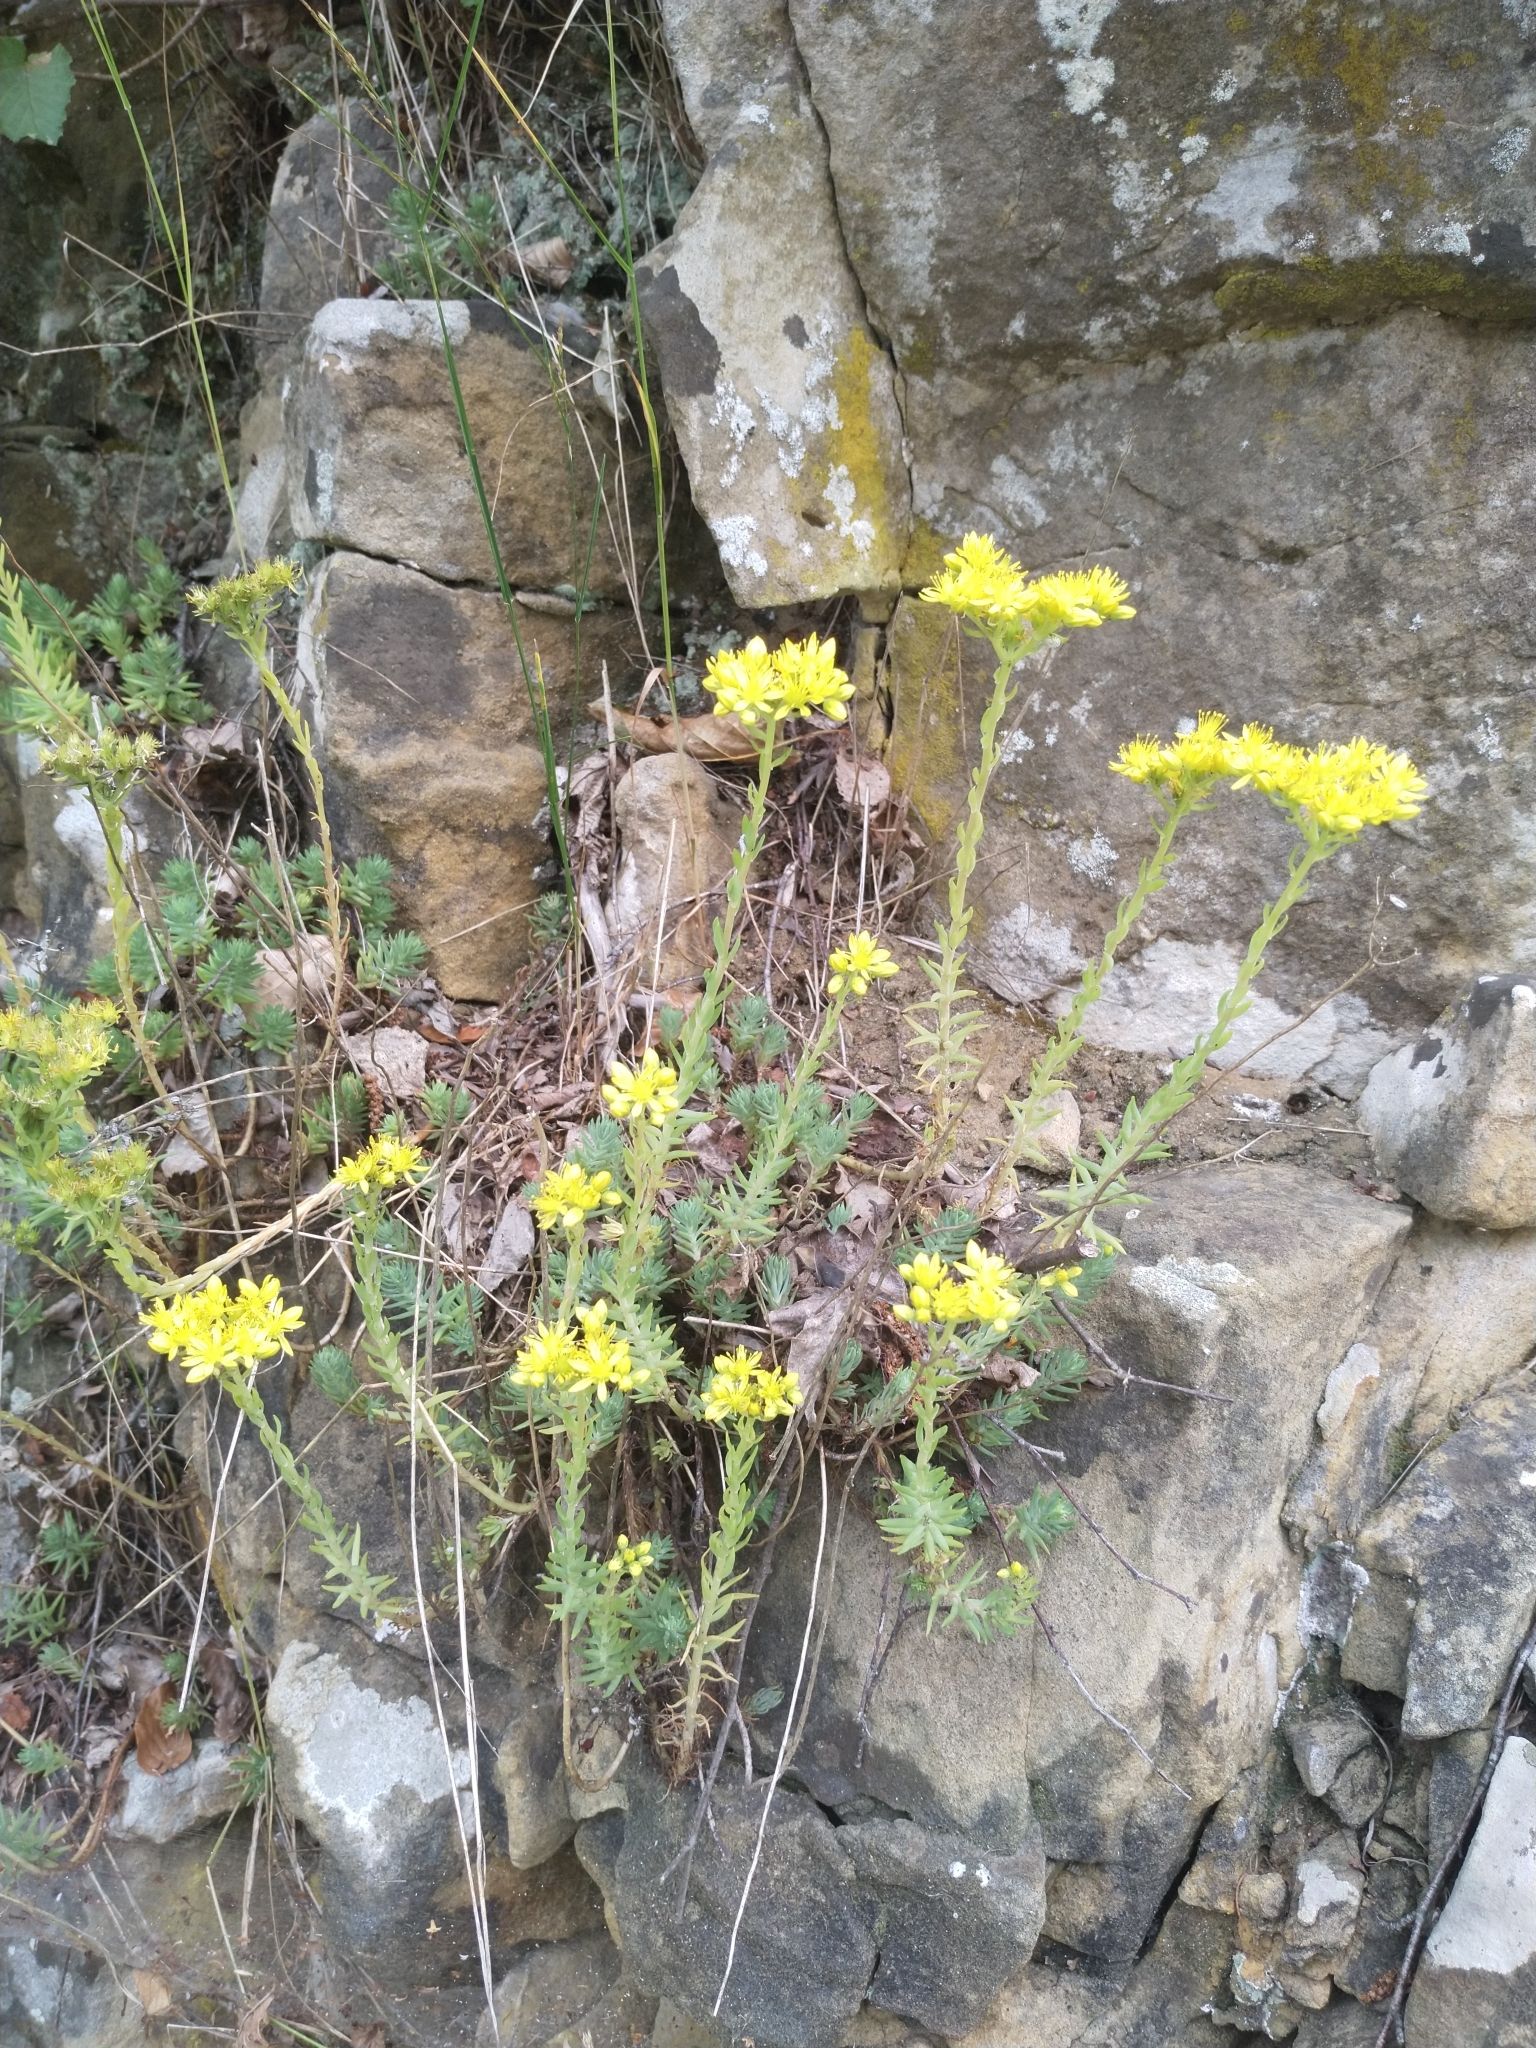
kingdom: Plantae
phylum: Tracheophyta
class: Magnoliopsida
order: Saxifragales
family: Crassulaceae
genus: Petrosedum
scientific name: Petrosedum rupestre
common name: Jenny's stonecrop
